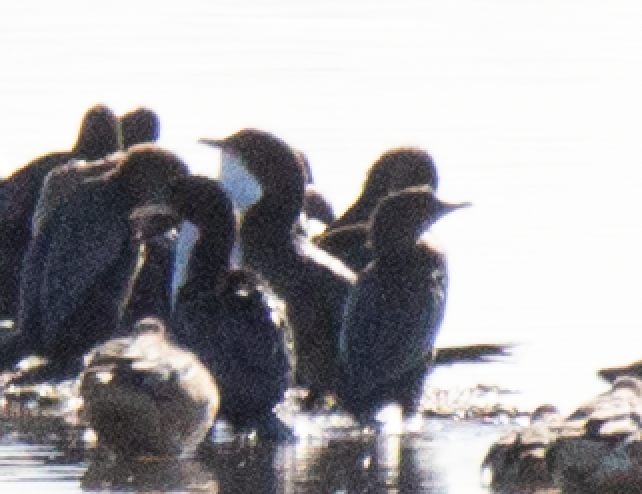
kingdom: Animalia
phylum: Chordata
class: Aves
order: Suliformes
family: Phalacrocoracidae
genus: Microcarbo
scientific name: Microcarbo pygmaeus
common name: Pygmy cormorant
